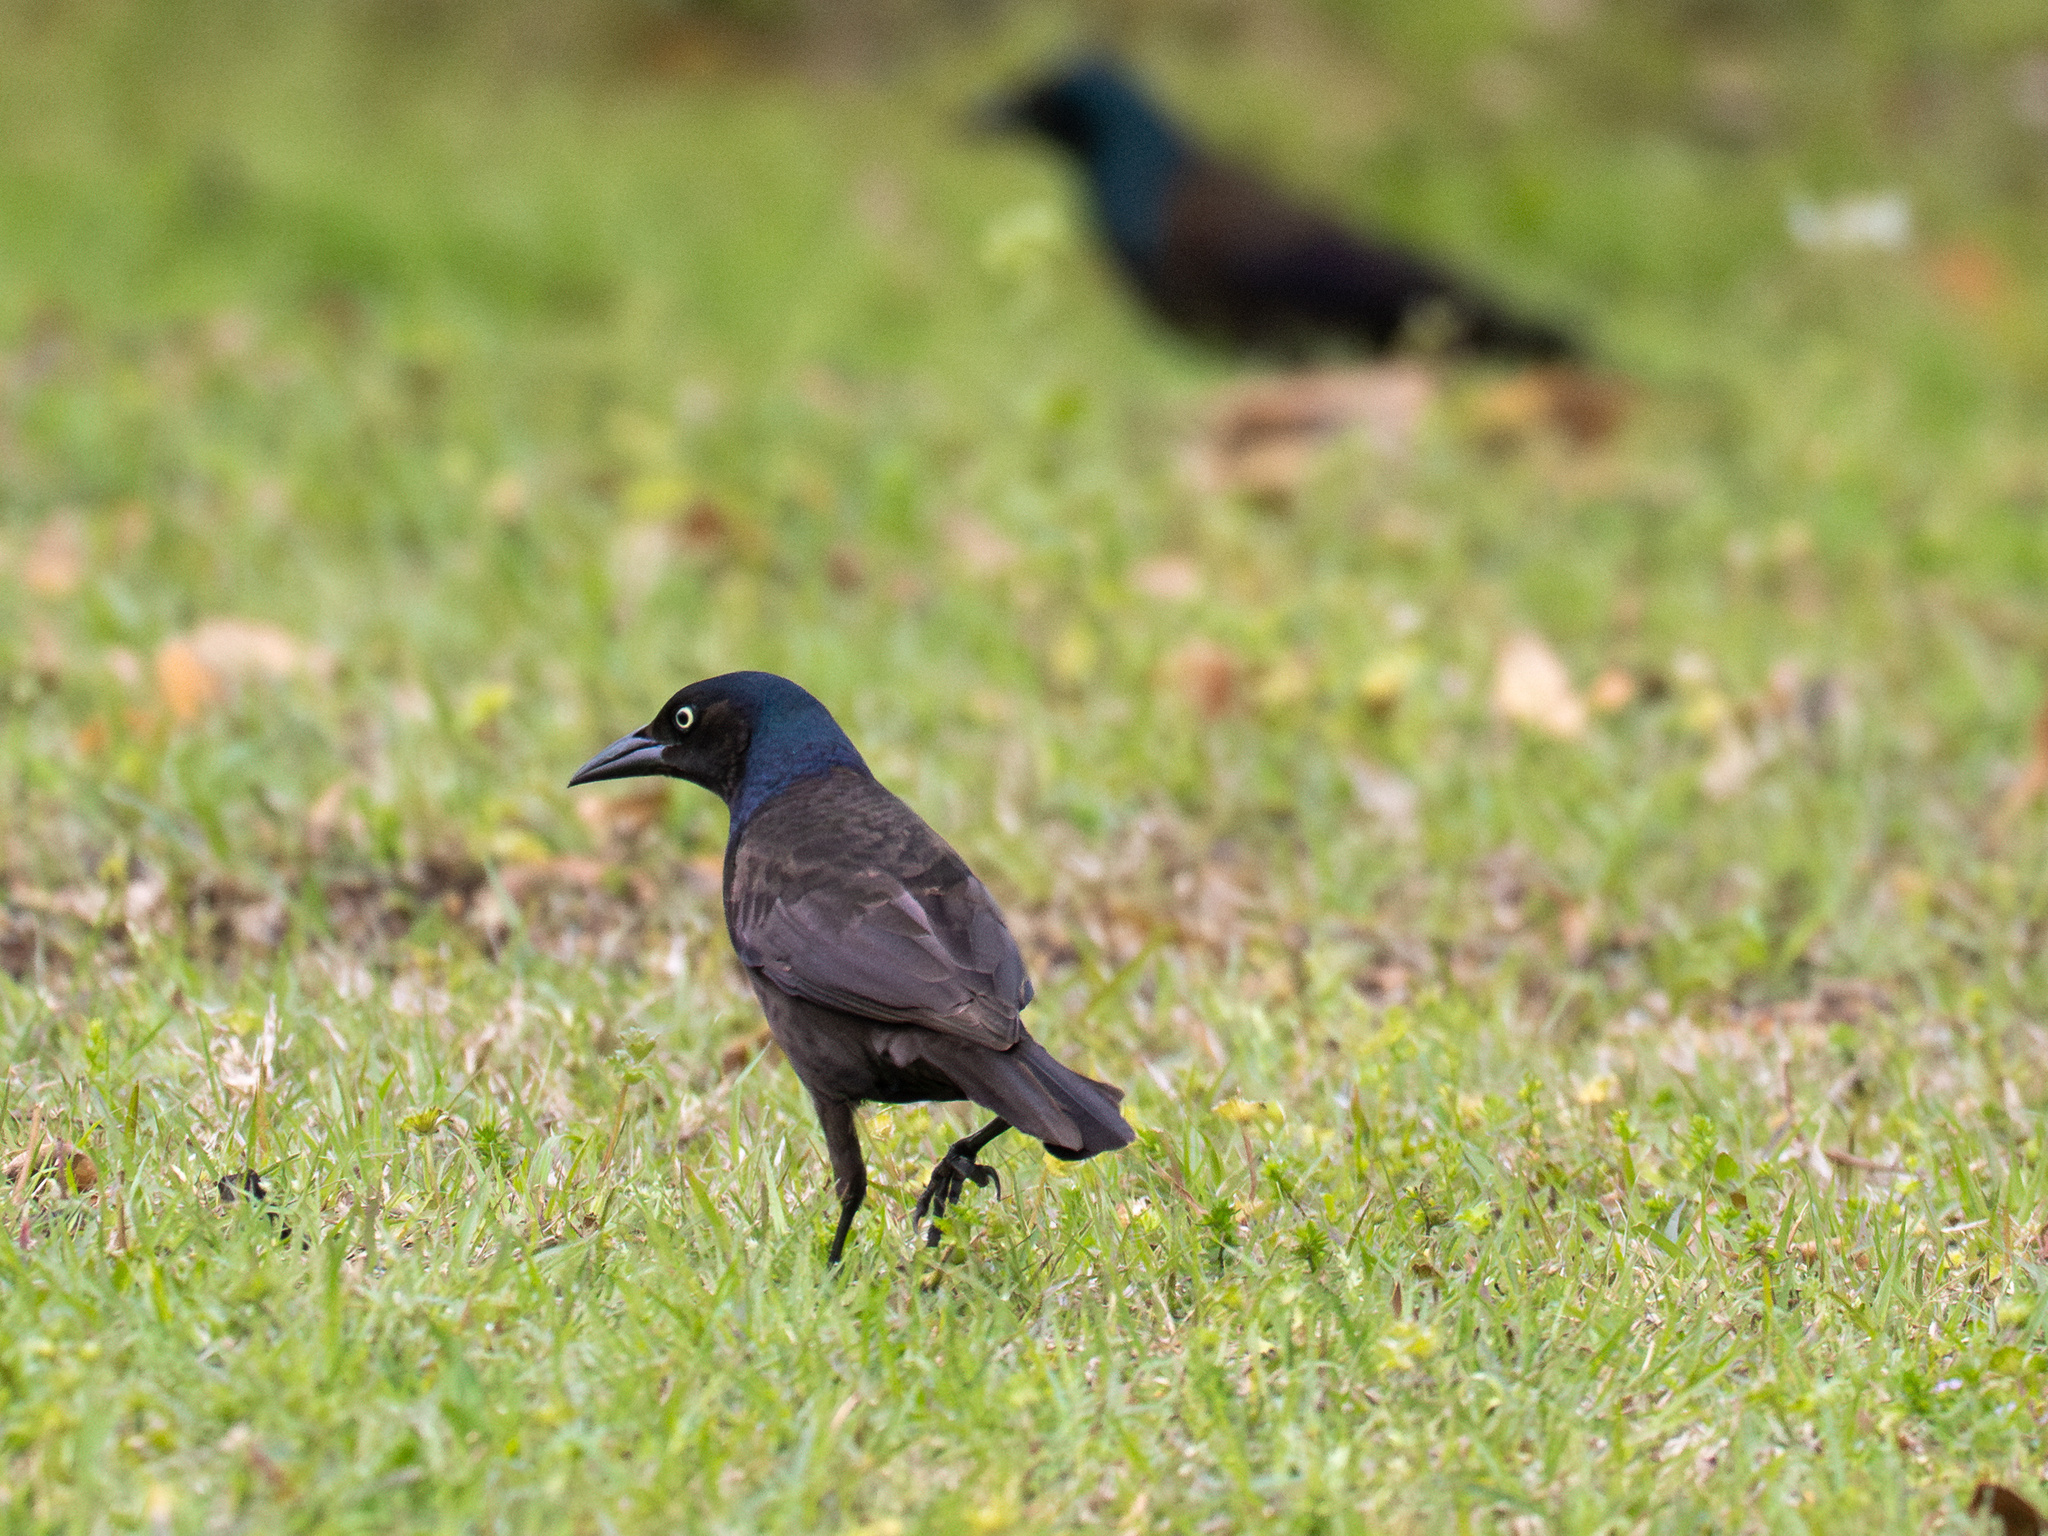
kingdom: Animalia
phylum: Chordata
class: Aves
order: Passeriformes
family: Icteridae
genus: Quiscalus
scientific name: Quiscalus quiscula
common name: Common grackle
